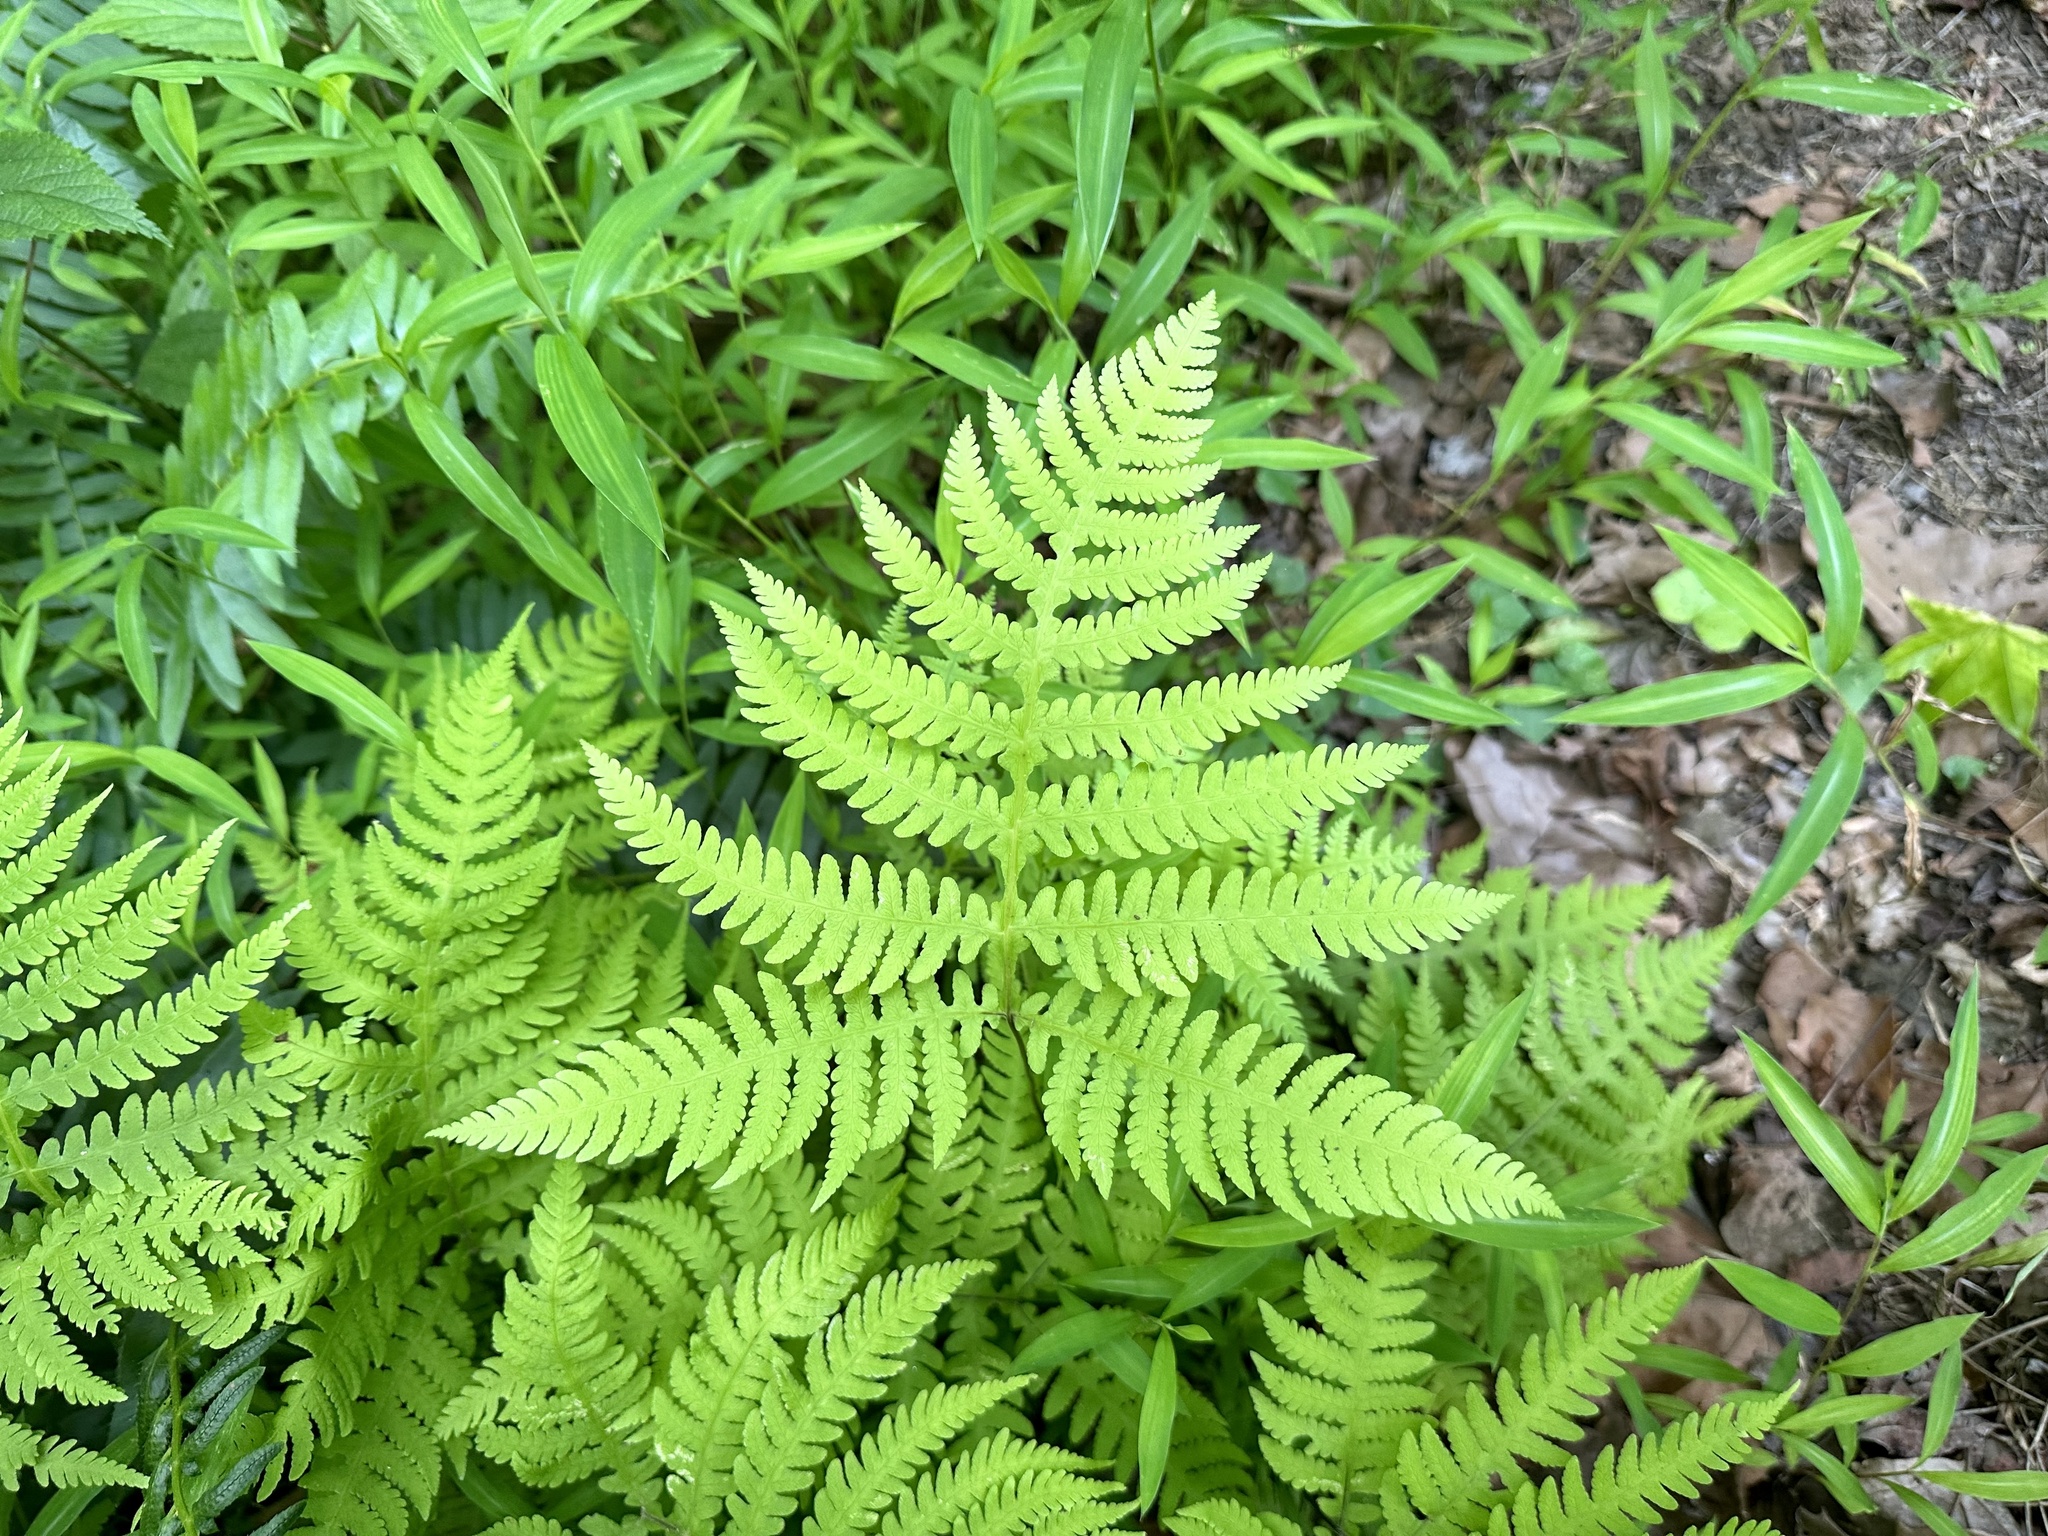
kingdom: Plantae
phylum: Tracheophyta
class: Polypodiopsida
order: Polypodiales
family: Thelypteridaceae
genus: Phegopteris
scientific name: Phegopteris hexagonoptera
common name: Broad beech fern
